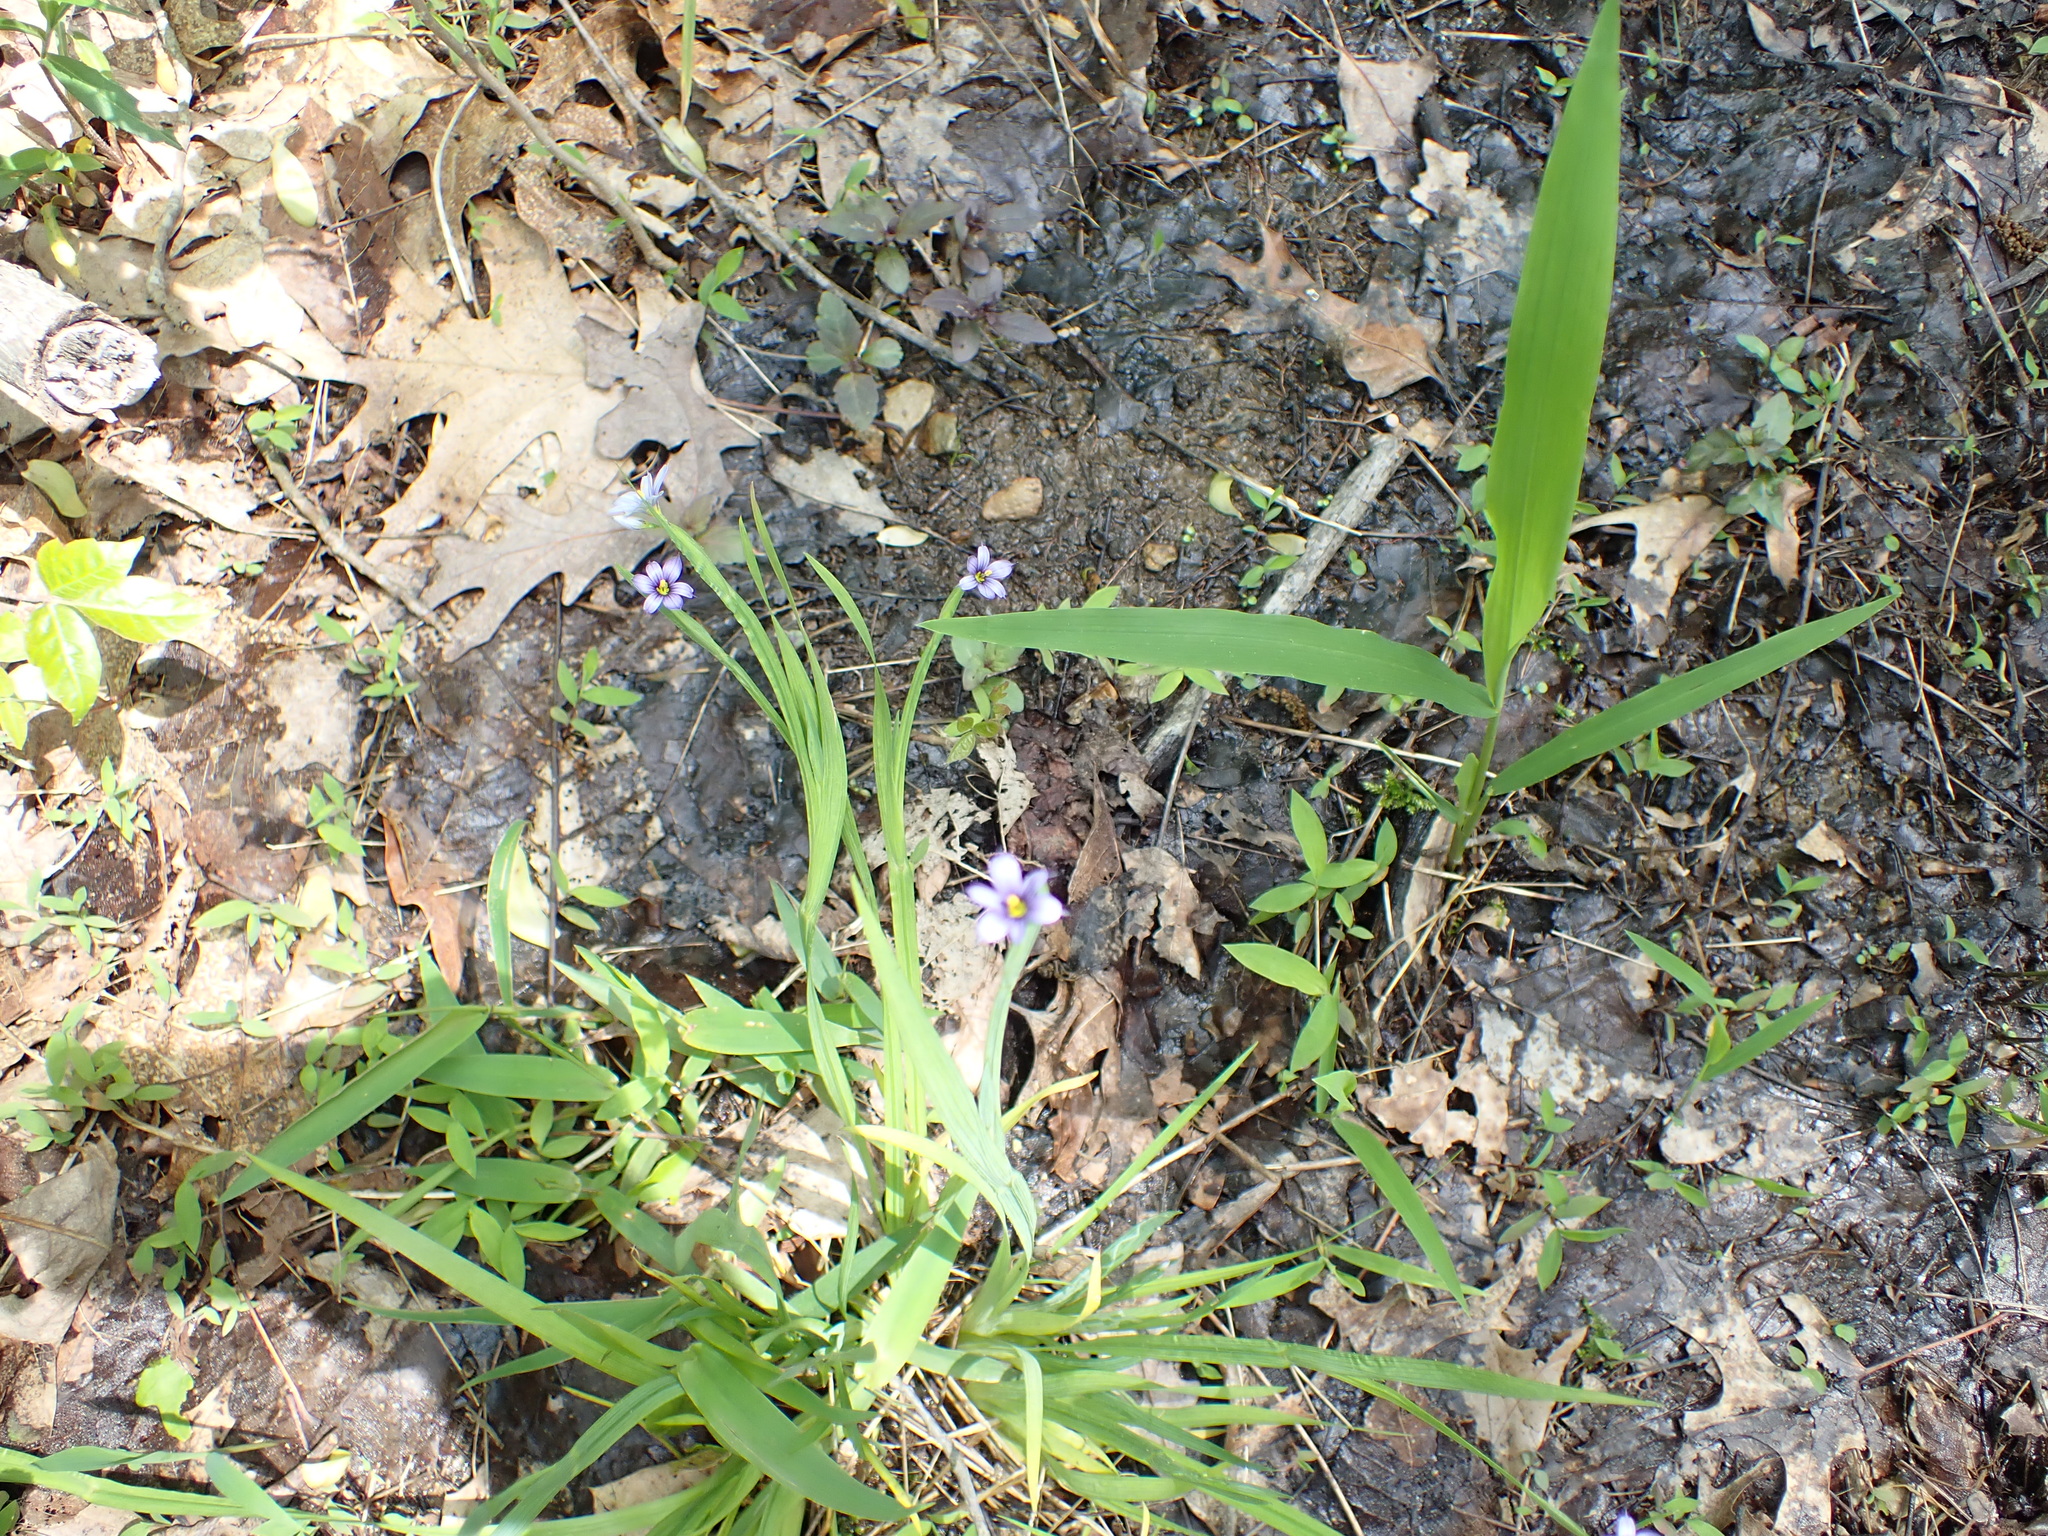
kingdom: Plantae
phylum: Tracheophyta
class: Liliopsida
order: Asparagales
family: Iridaceae
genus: Sisyrinchium
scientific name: Sisyrinchium angustifolium
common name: Narrow-leaf blue-eyed-grass
